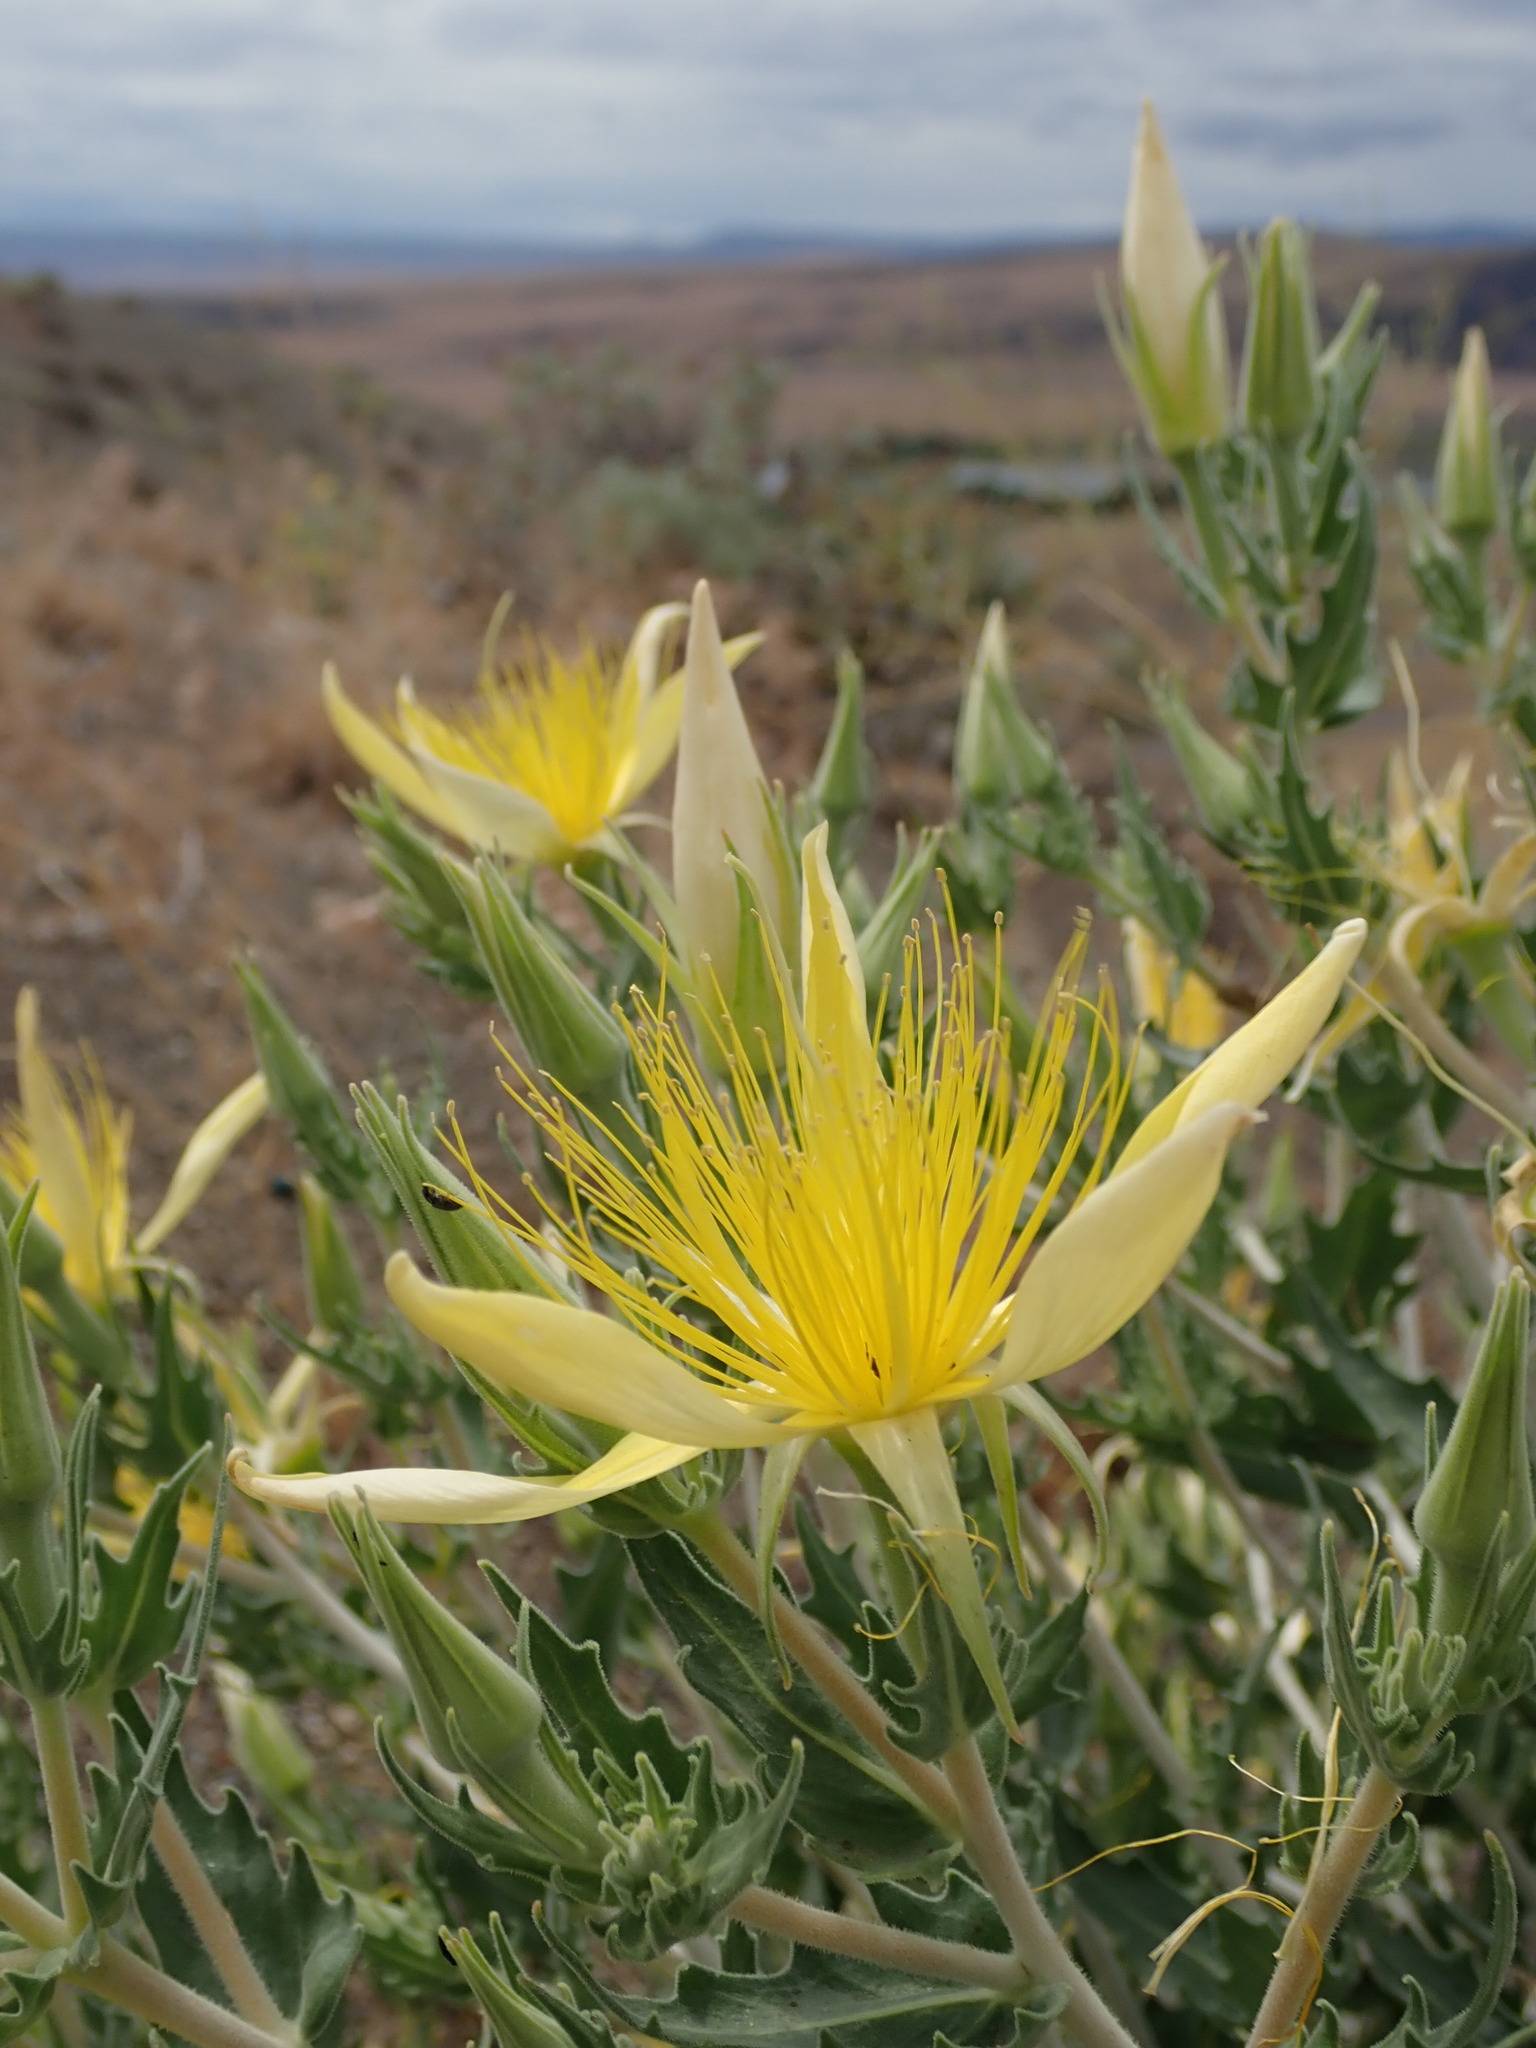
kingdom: Plantae
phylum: Tracheophyta
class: Magnoliopsida
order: Cornales
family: Loasaceae
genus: Mentzelia
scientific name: Mentzelia laevicaulis
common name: Smooth-stem blazingstar
